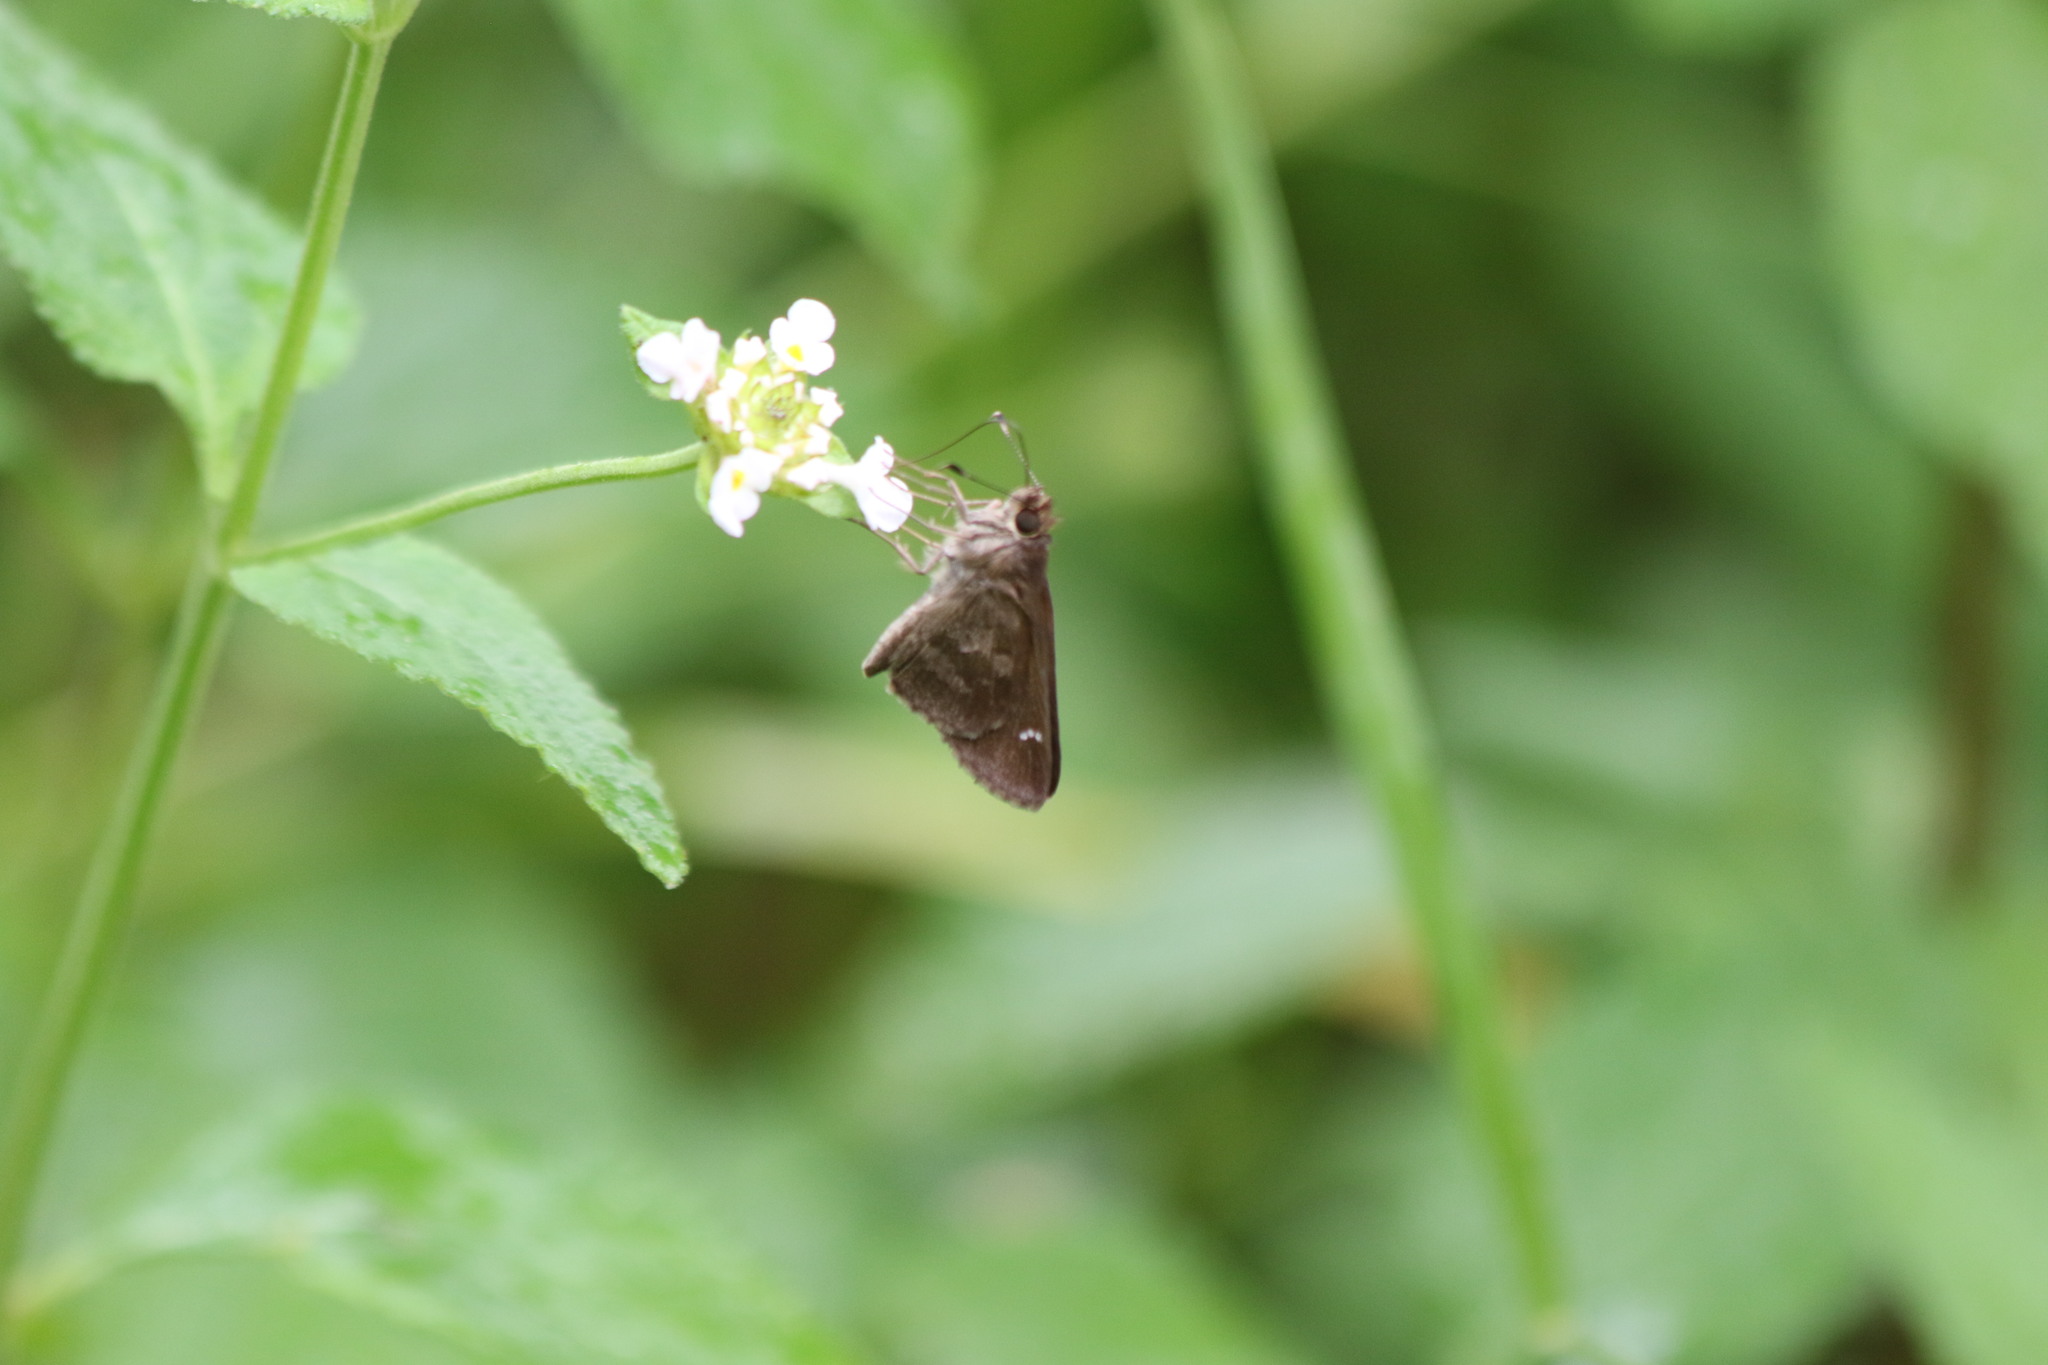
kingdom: Animalia
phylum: Arthropoda
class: Insecta
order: Lepidoptera
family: Hesperiidae
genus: Cymaenes
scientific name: Cymaenes
